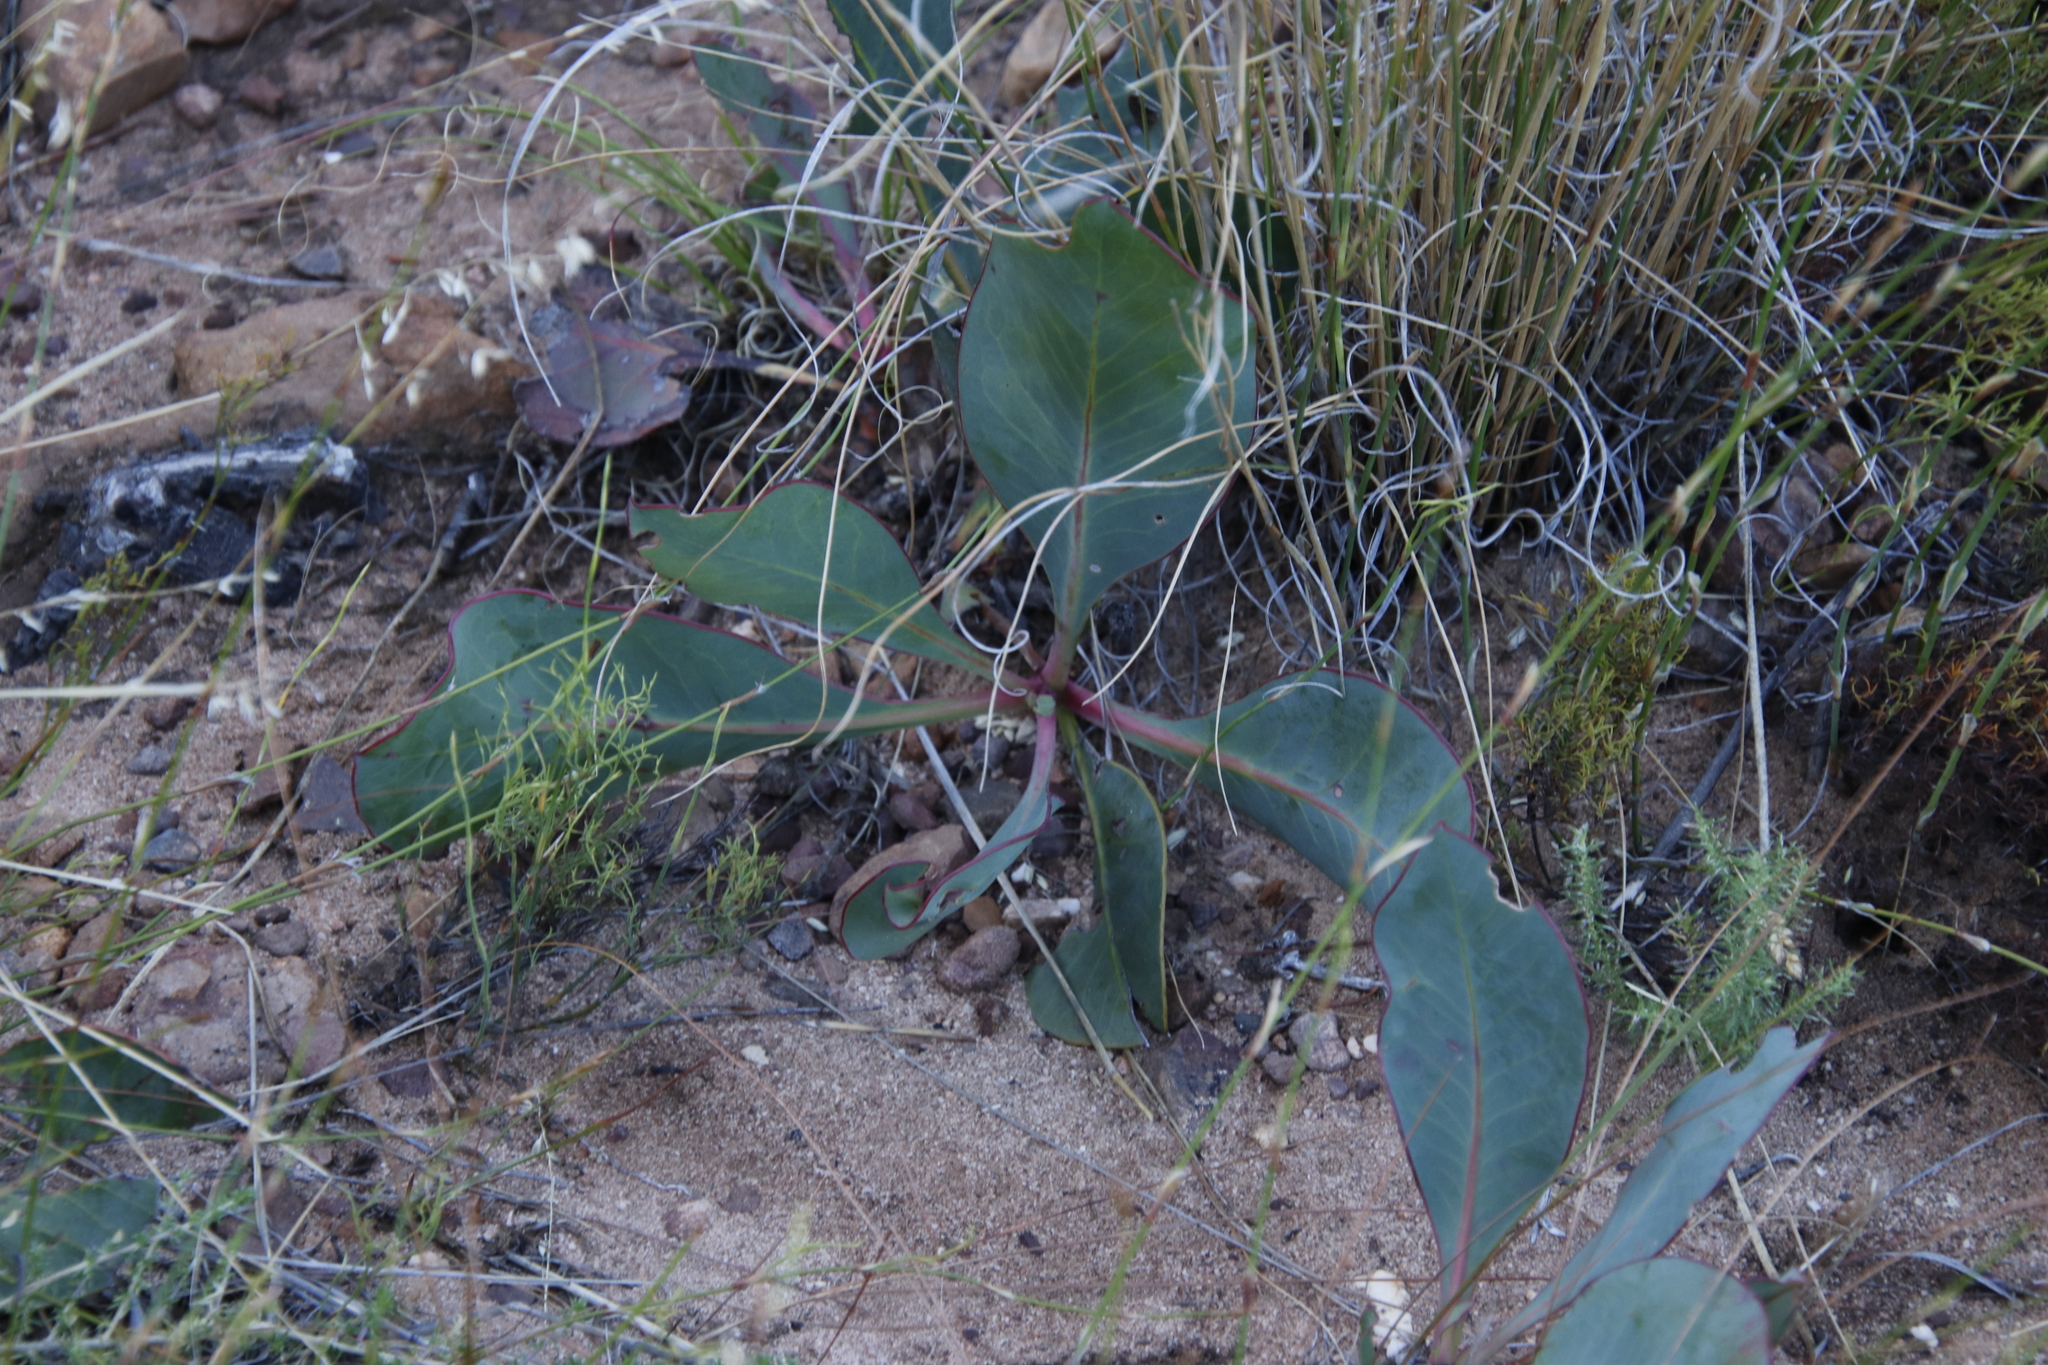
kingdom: Plantae
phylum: Tracheophyta
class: Magnoliopsida
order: Proteales
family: Proteaceae
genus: Protea
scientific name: Protea acaulos
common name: Common ground sugarbush
